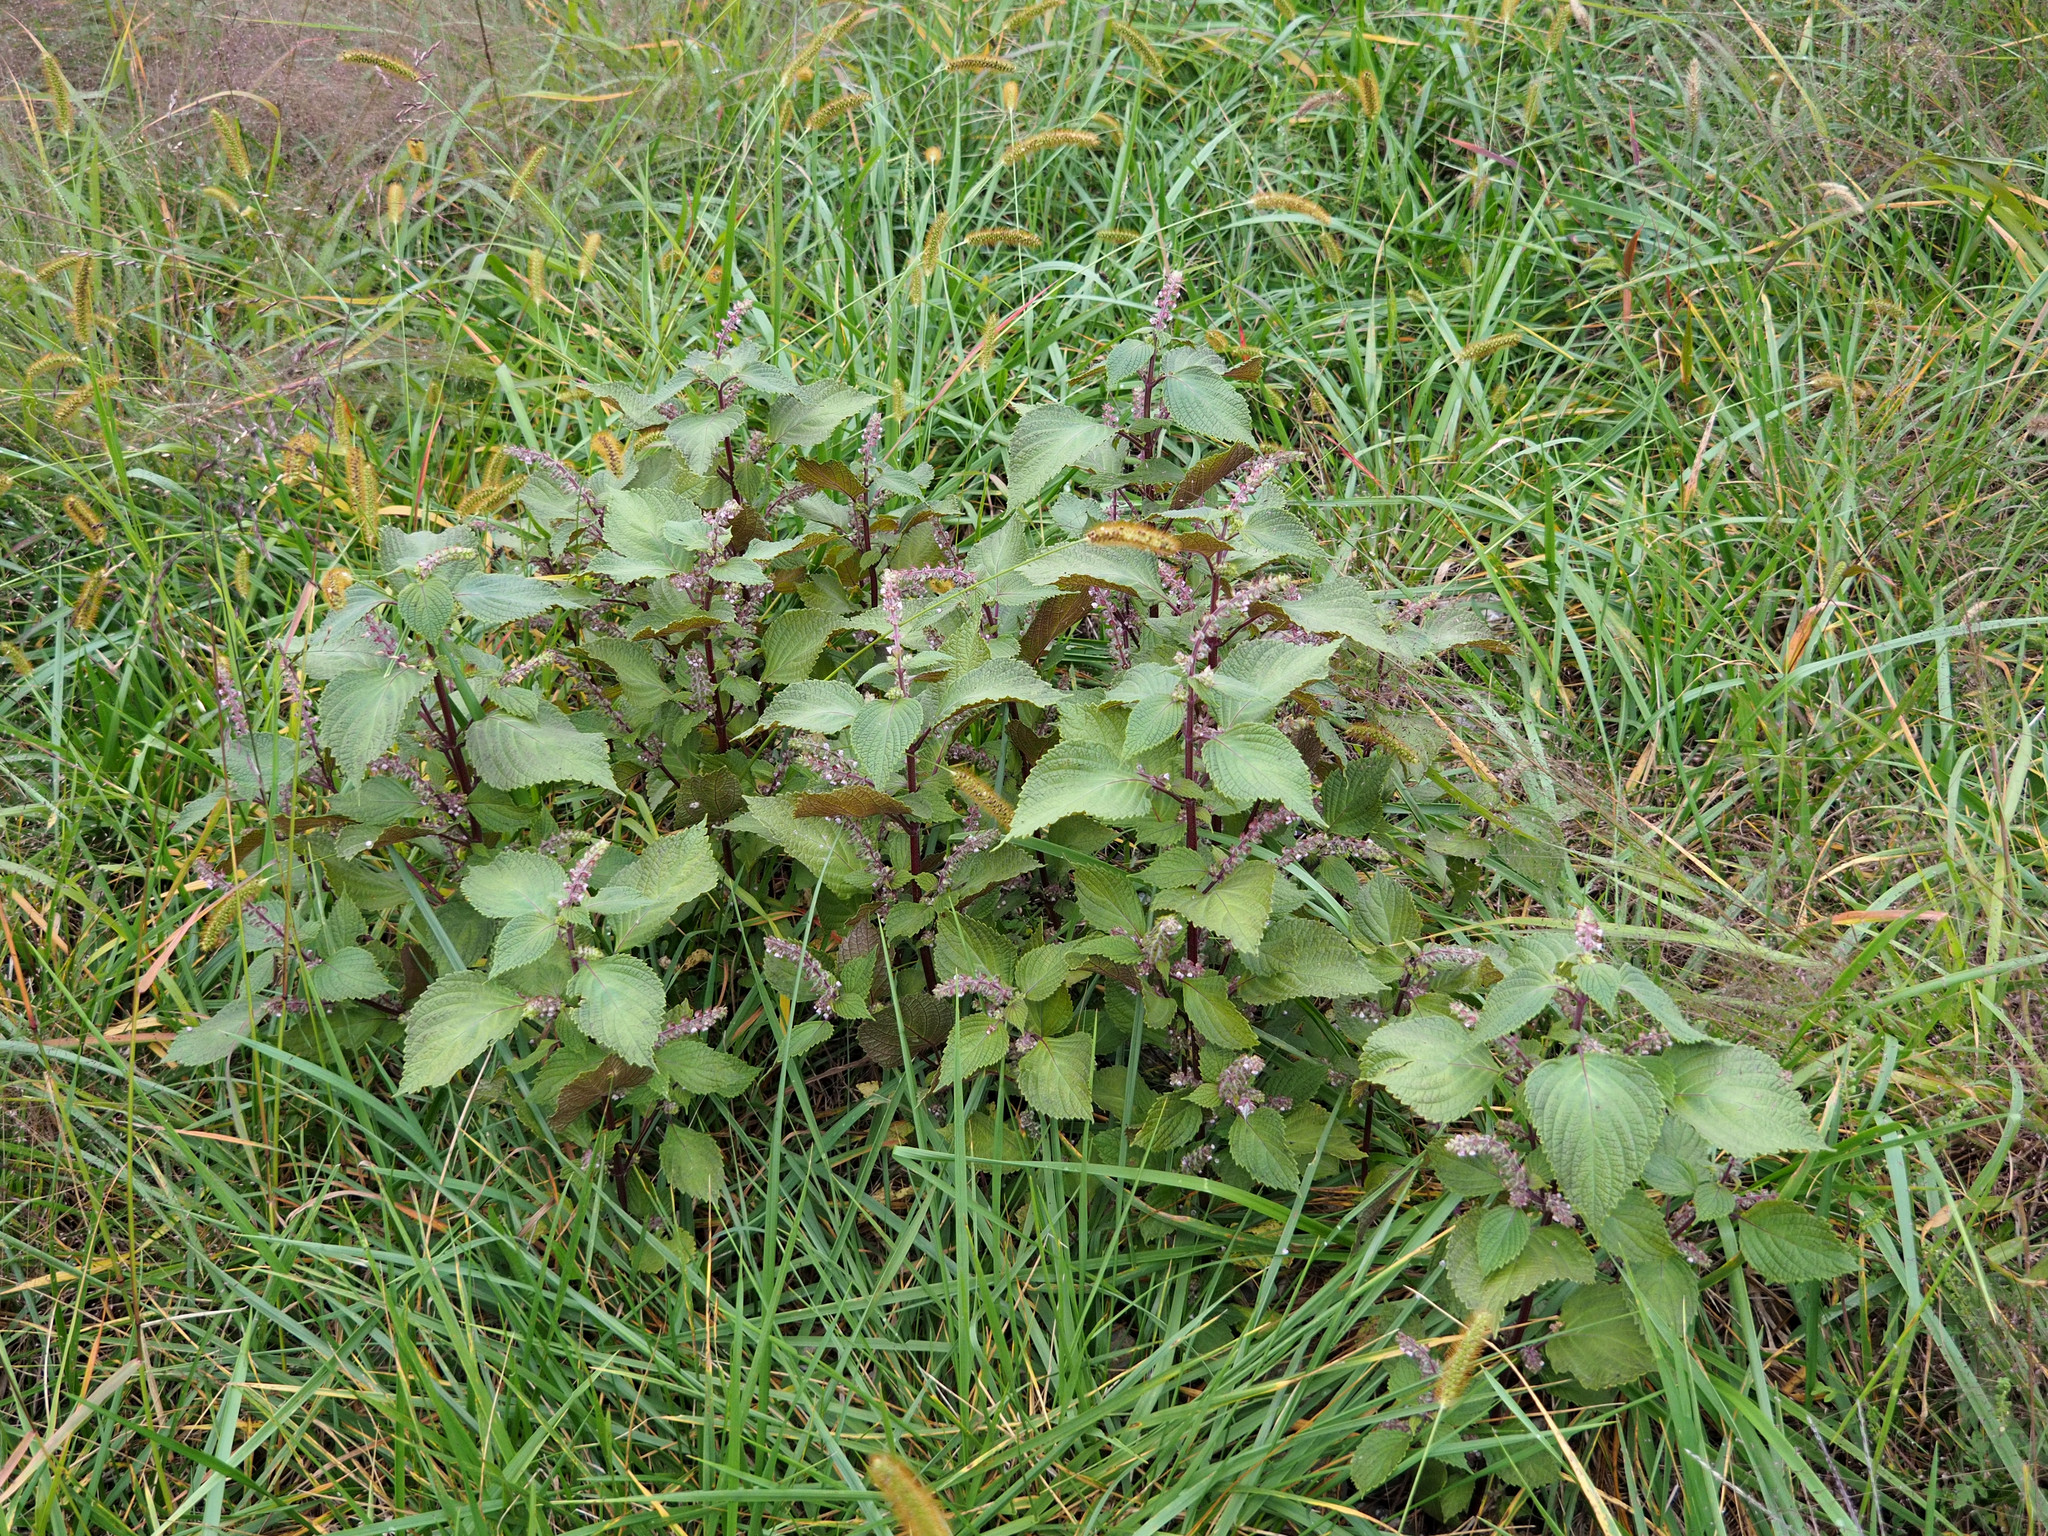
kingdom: Plantae
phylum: Tracheophyta
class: Magnoliopsida
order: Lamiales
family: Lamiaceae
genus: Perilla
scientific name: Perilla frutescens
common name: Perilla
